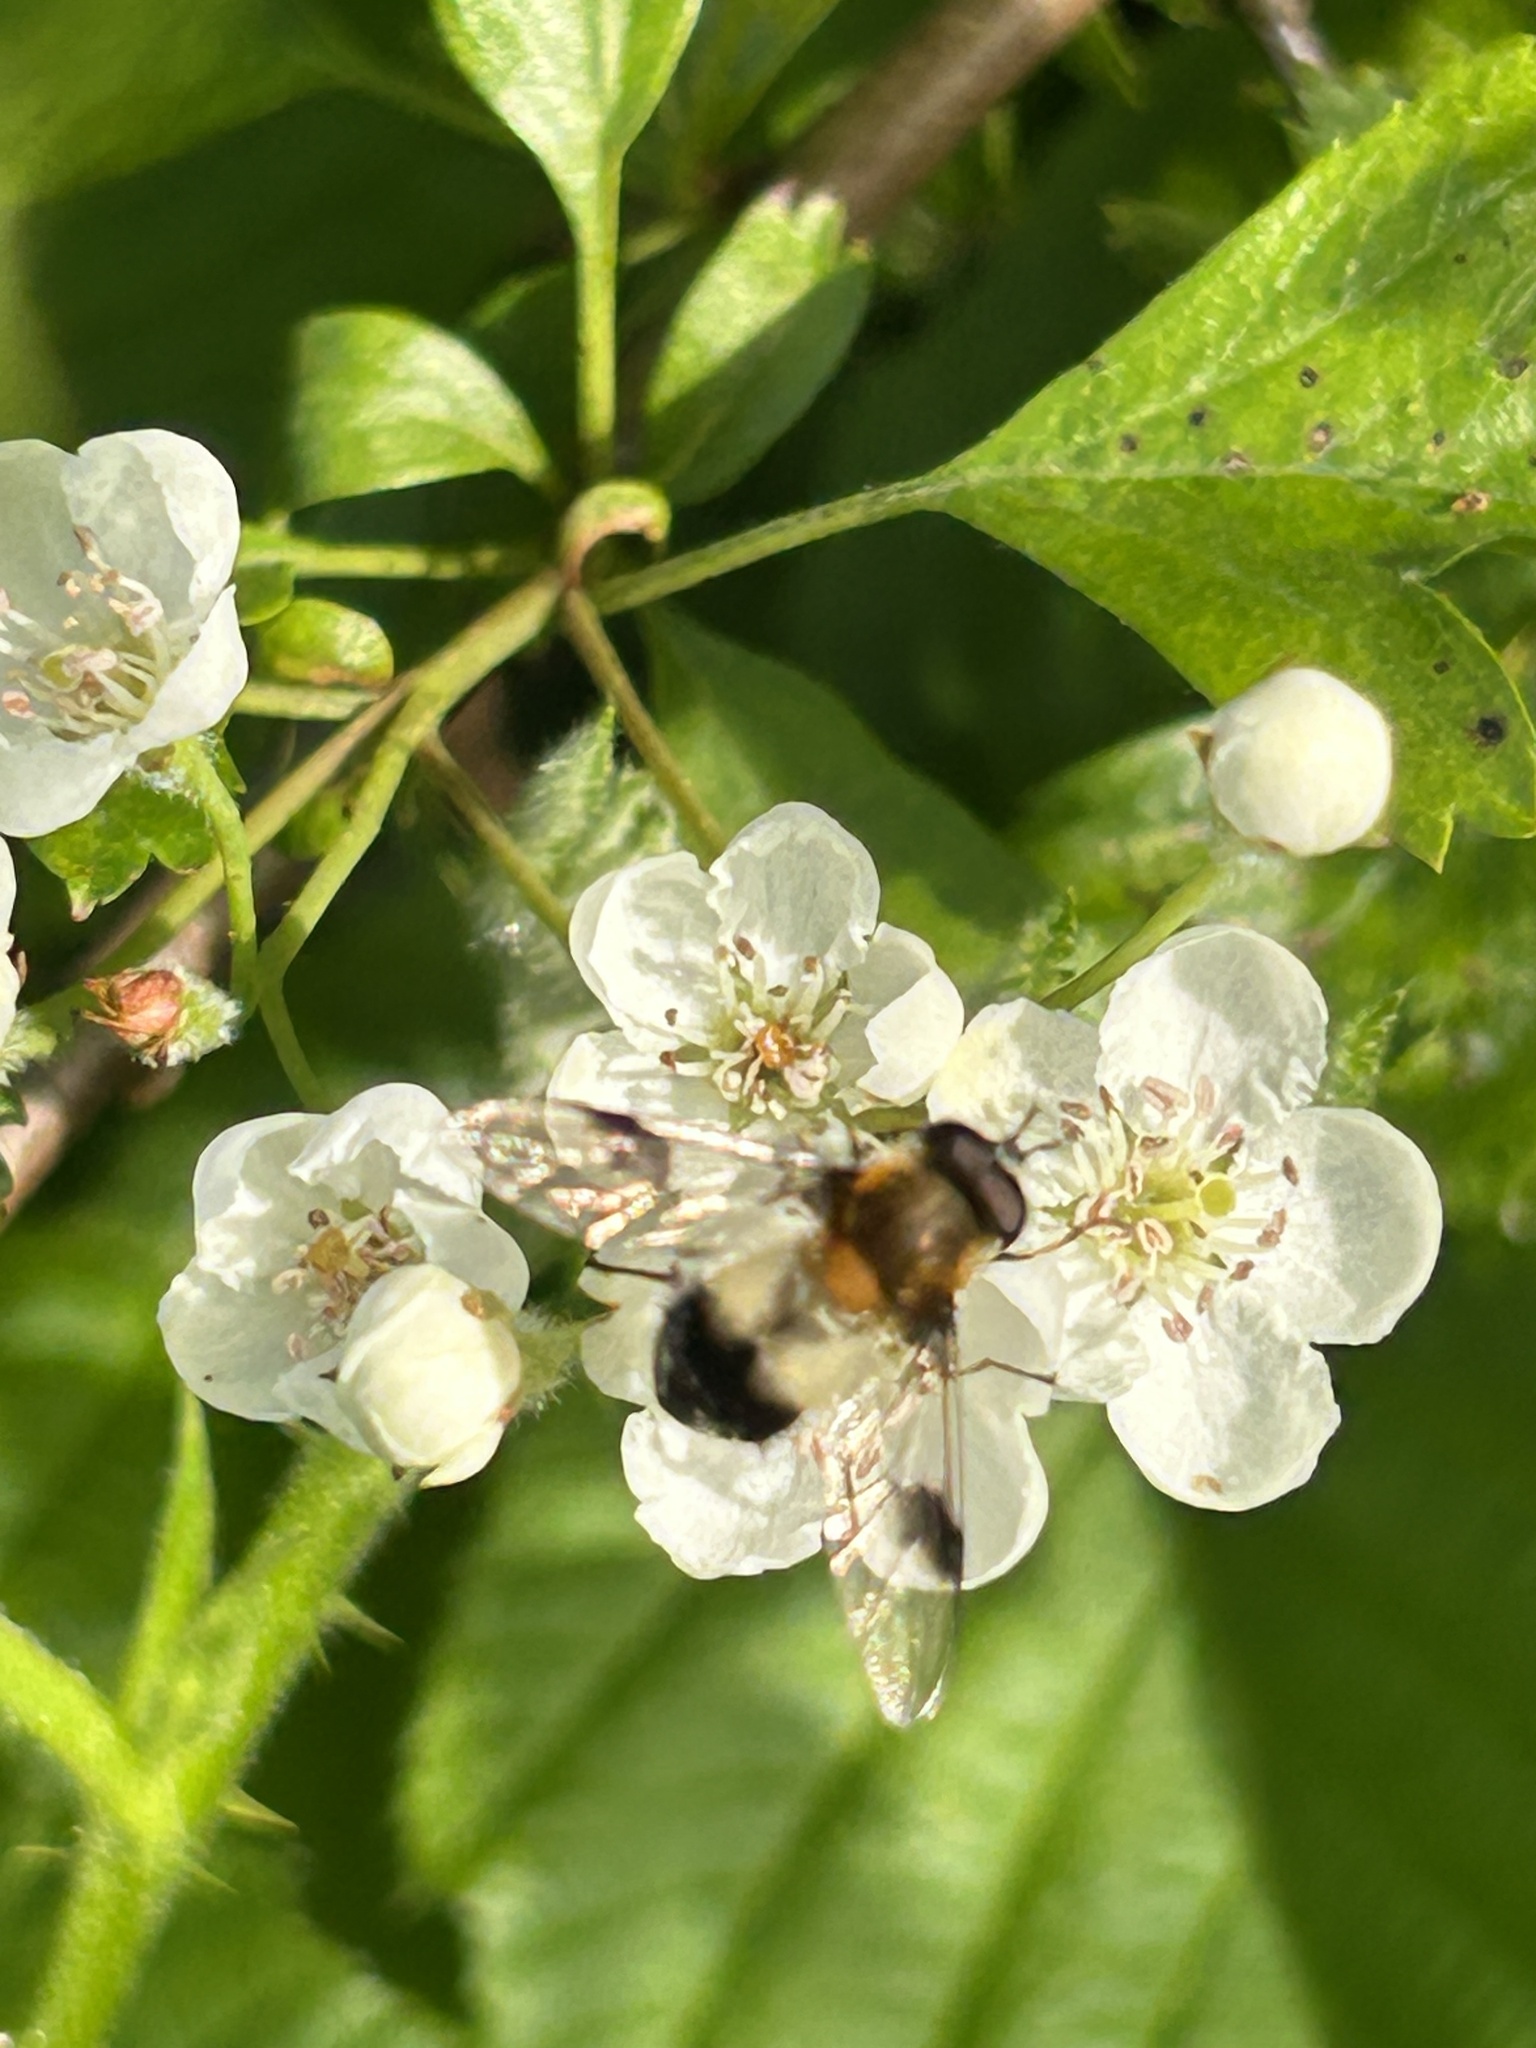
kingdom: Animalia
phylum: Arthropoda
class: Insecta
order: Diptera
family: Syrphidae
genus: Leucozona
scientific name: Leucozona lucorum
